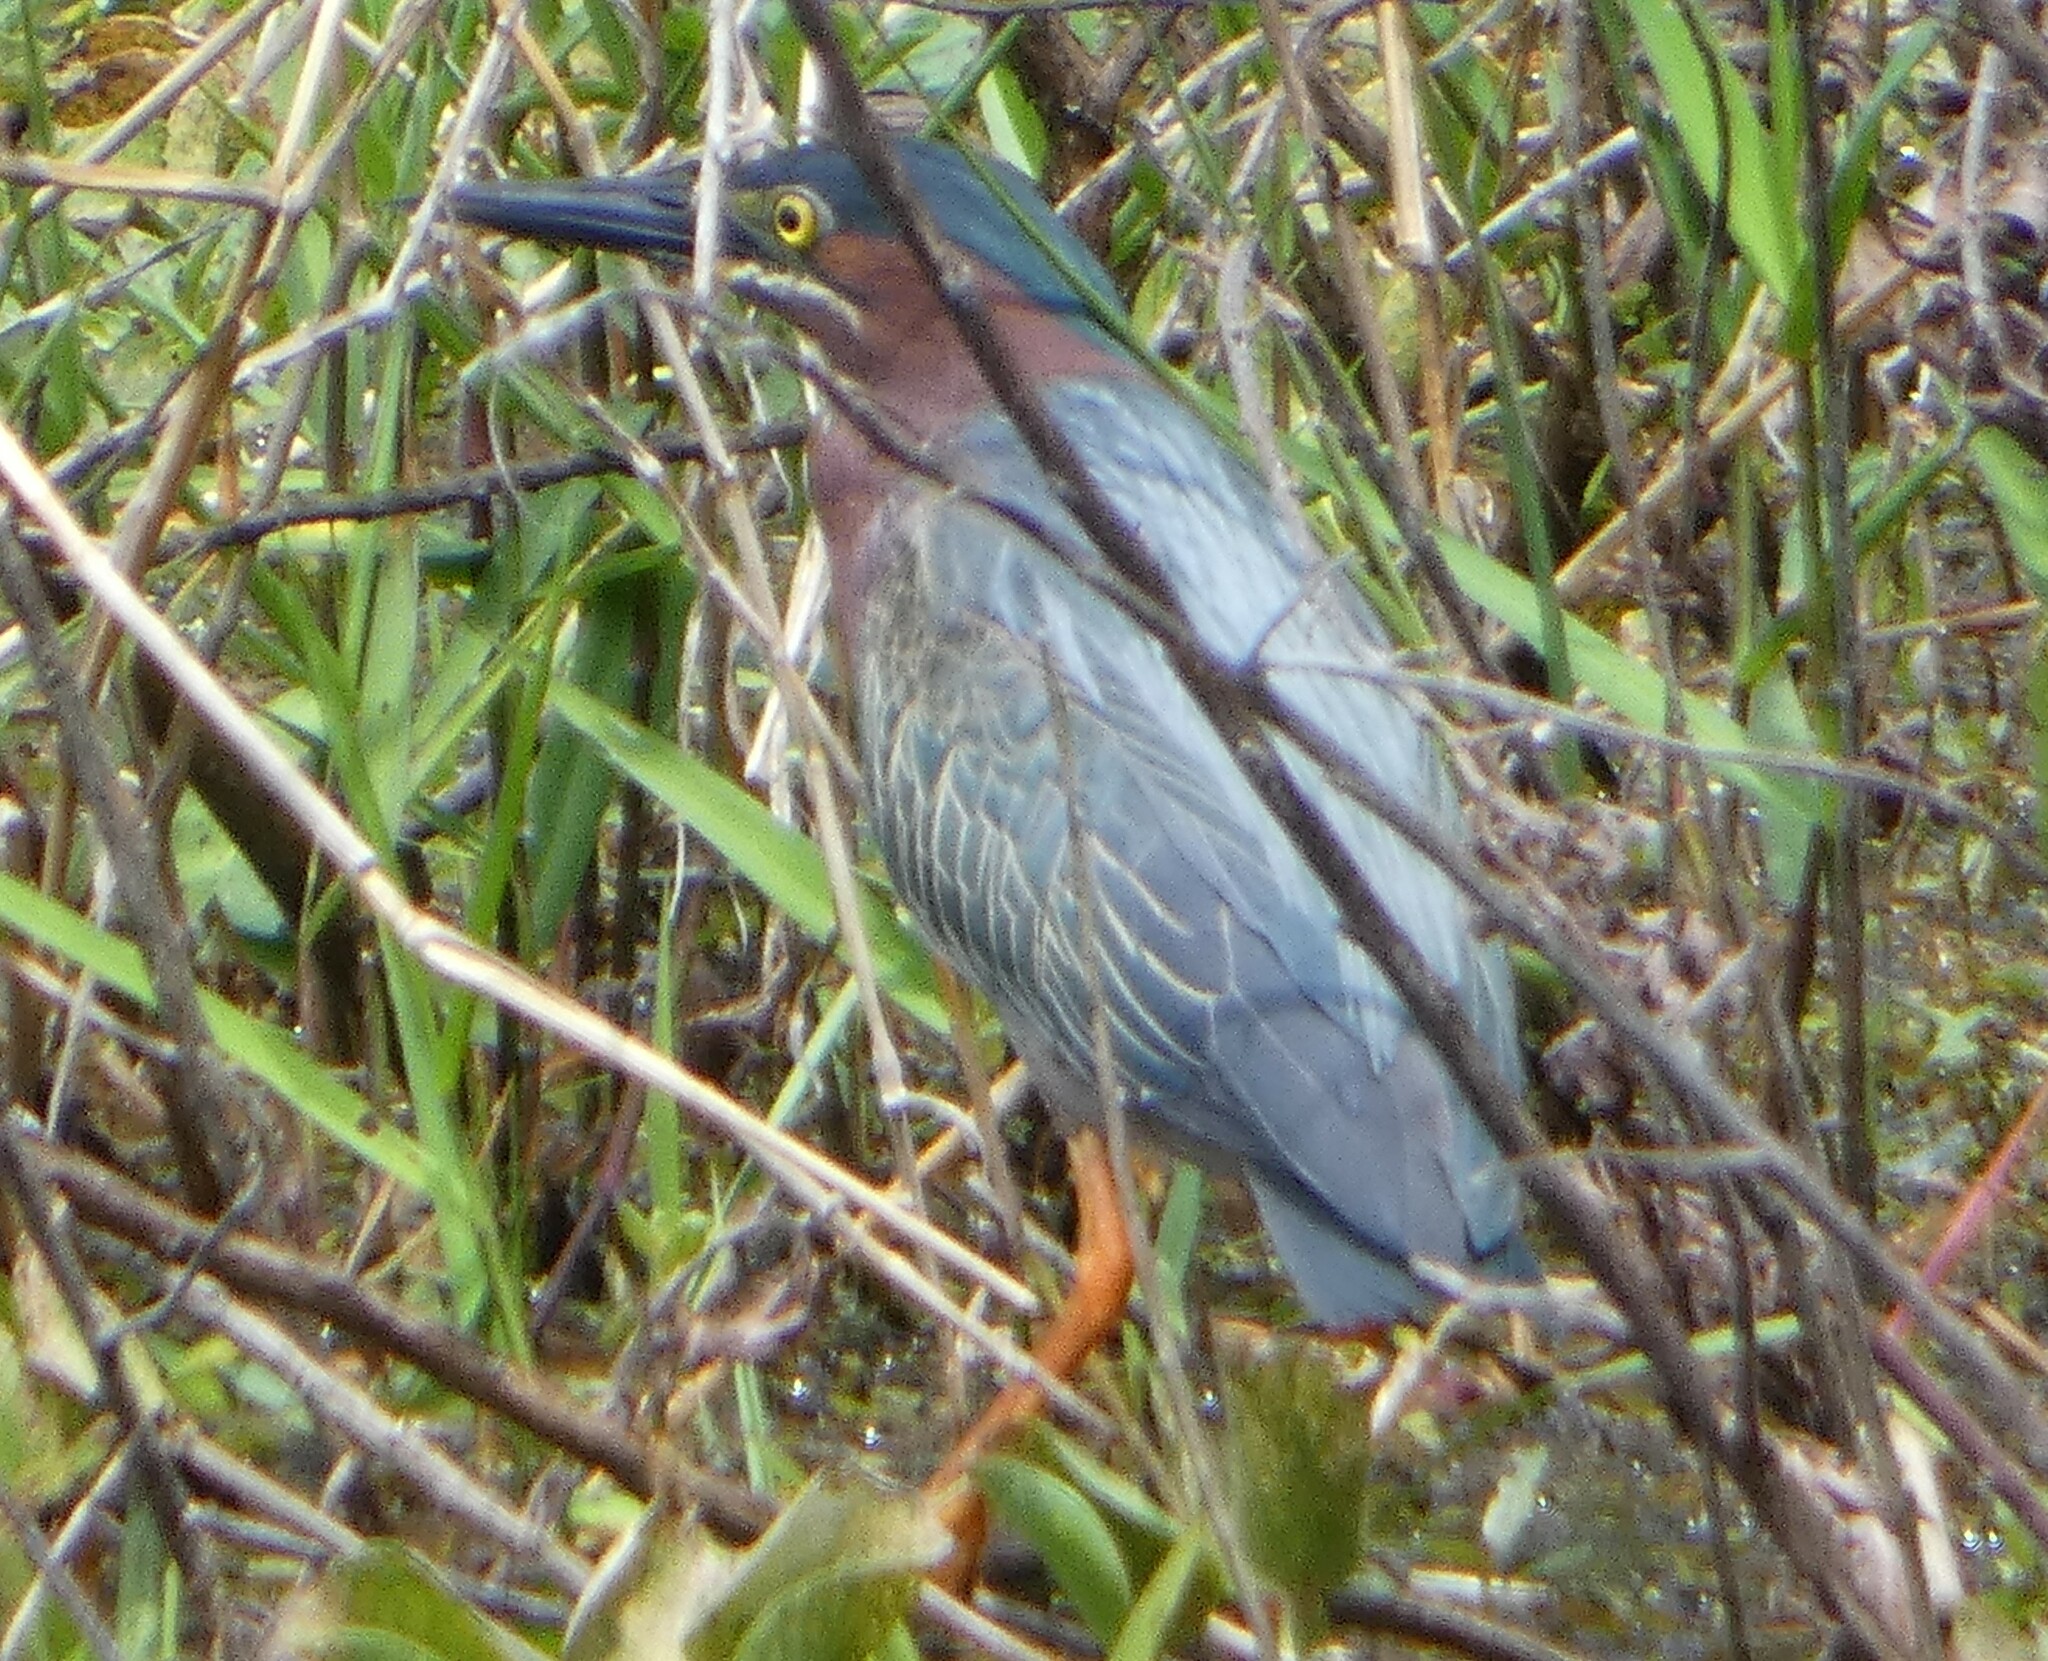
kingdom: Animalia
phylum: Chordata
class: Aves
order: Pelecaniformes
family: Ardeidae
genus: Butorides
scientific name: Butorides virescens
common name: Green heron
